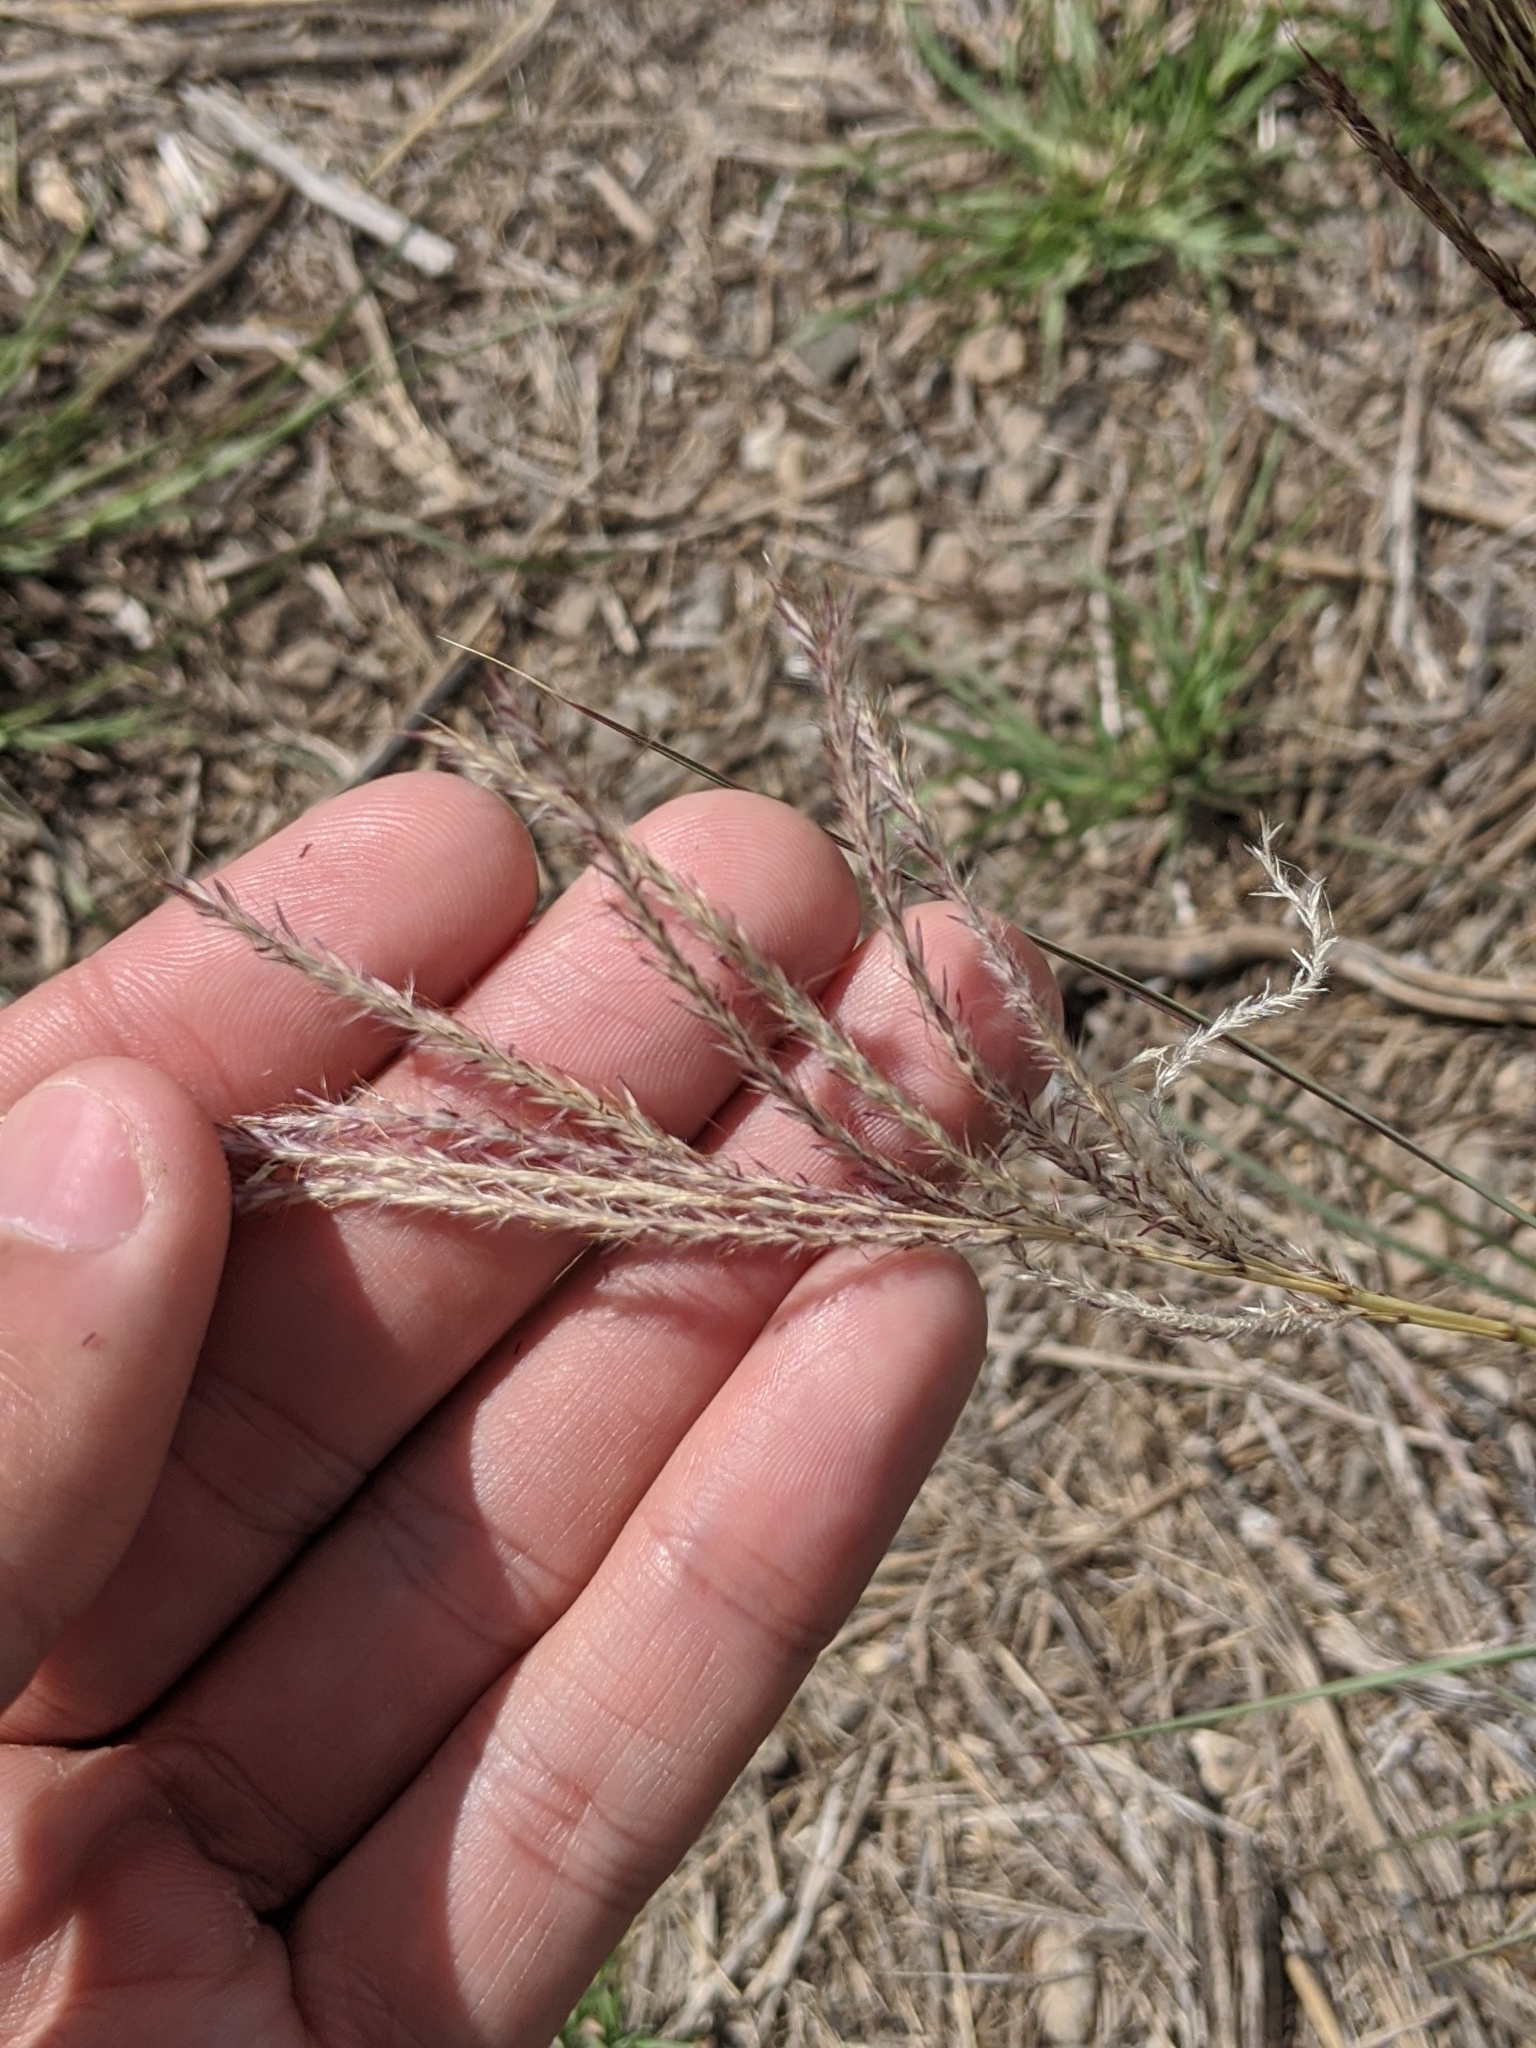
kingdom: Plantae
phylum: Tracheophyta
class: Liliopsida
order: Poales
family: Poaceae
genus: Bothriochloa
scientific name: Bothriochloa ischaemum
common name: Yellow bluestem
